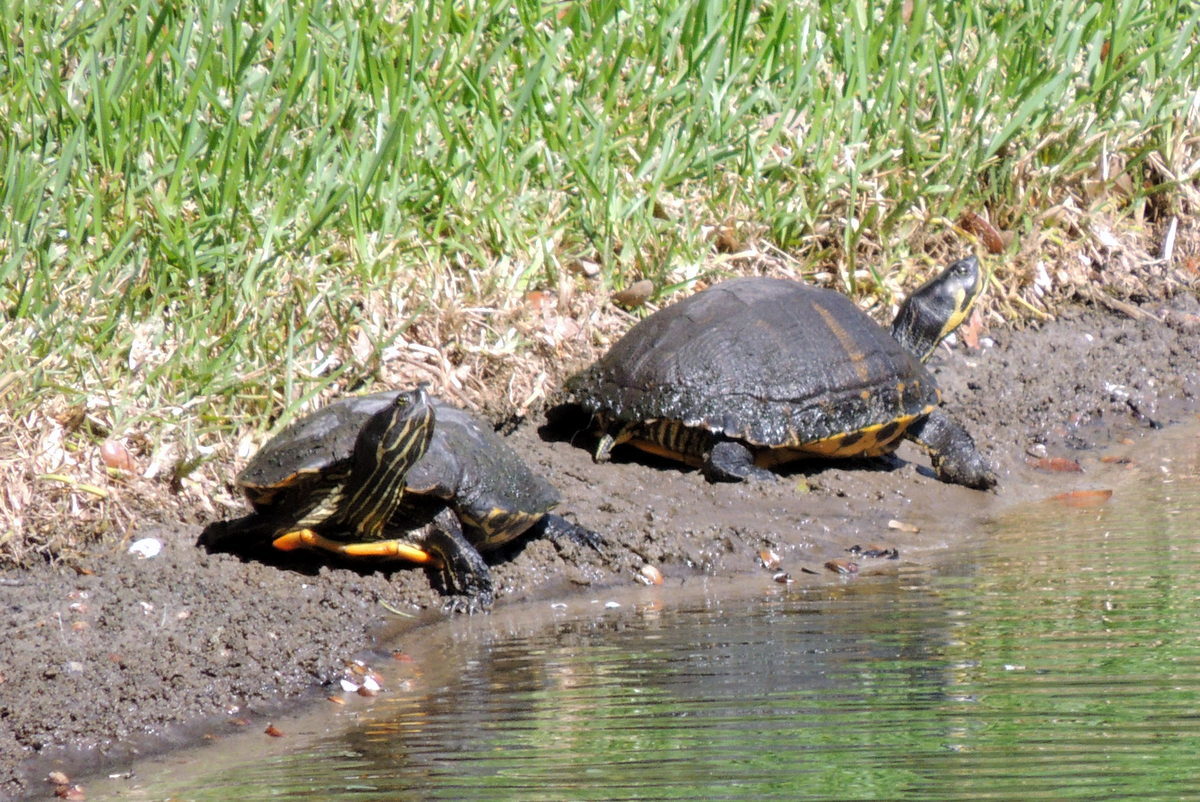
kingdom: Animalia
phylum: Chordata
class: Testudines
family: Emydidae
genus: Trachemys
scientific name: Trachemys scripta
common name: Slider
